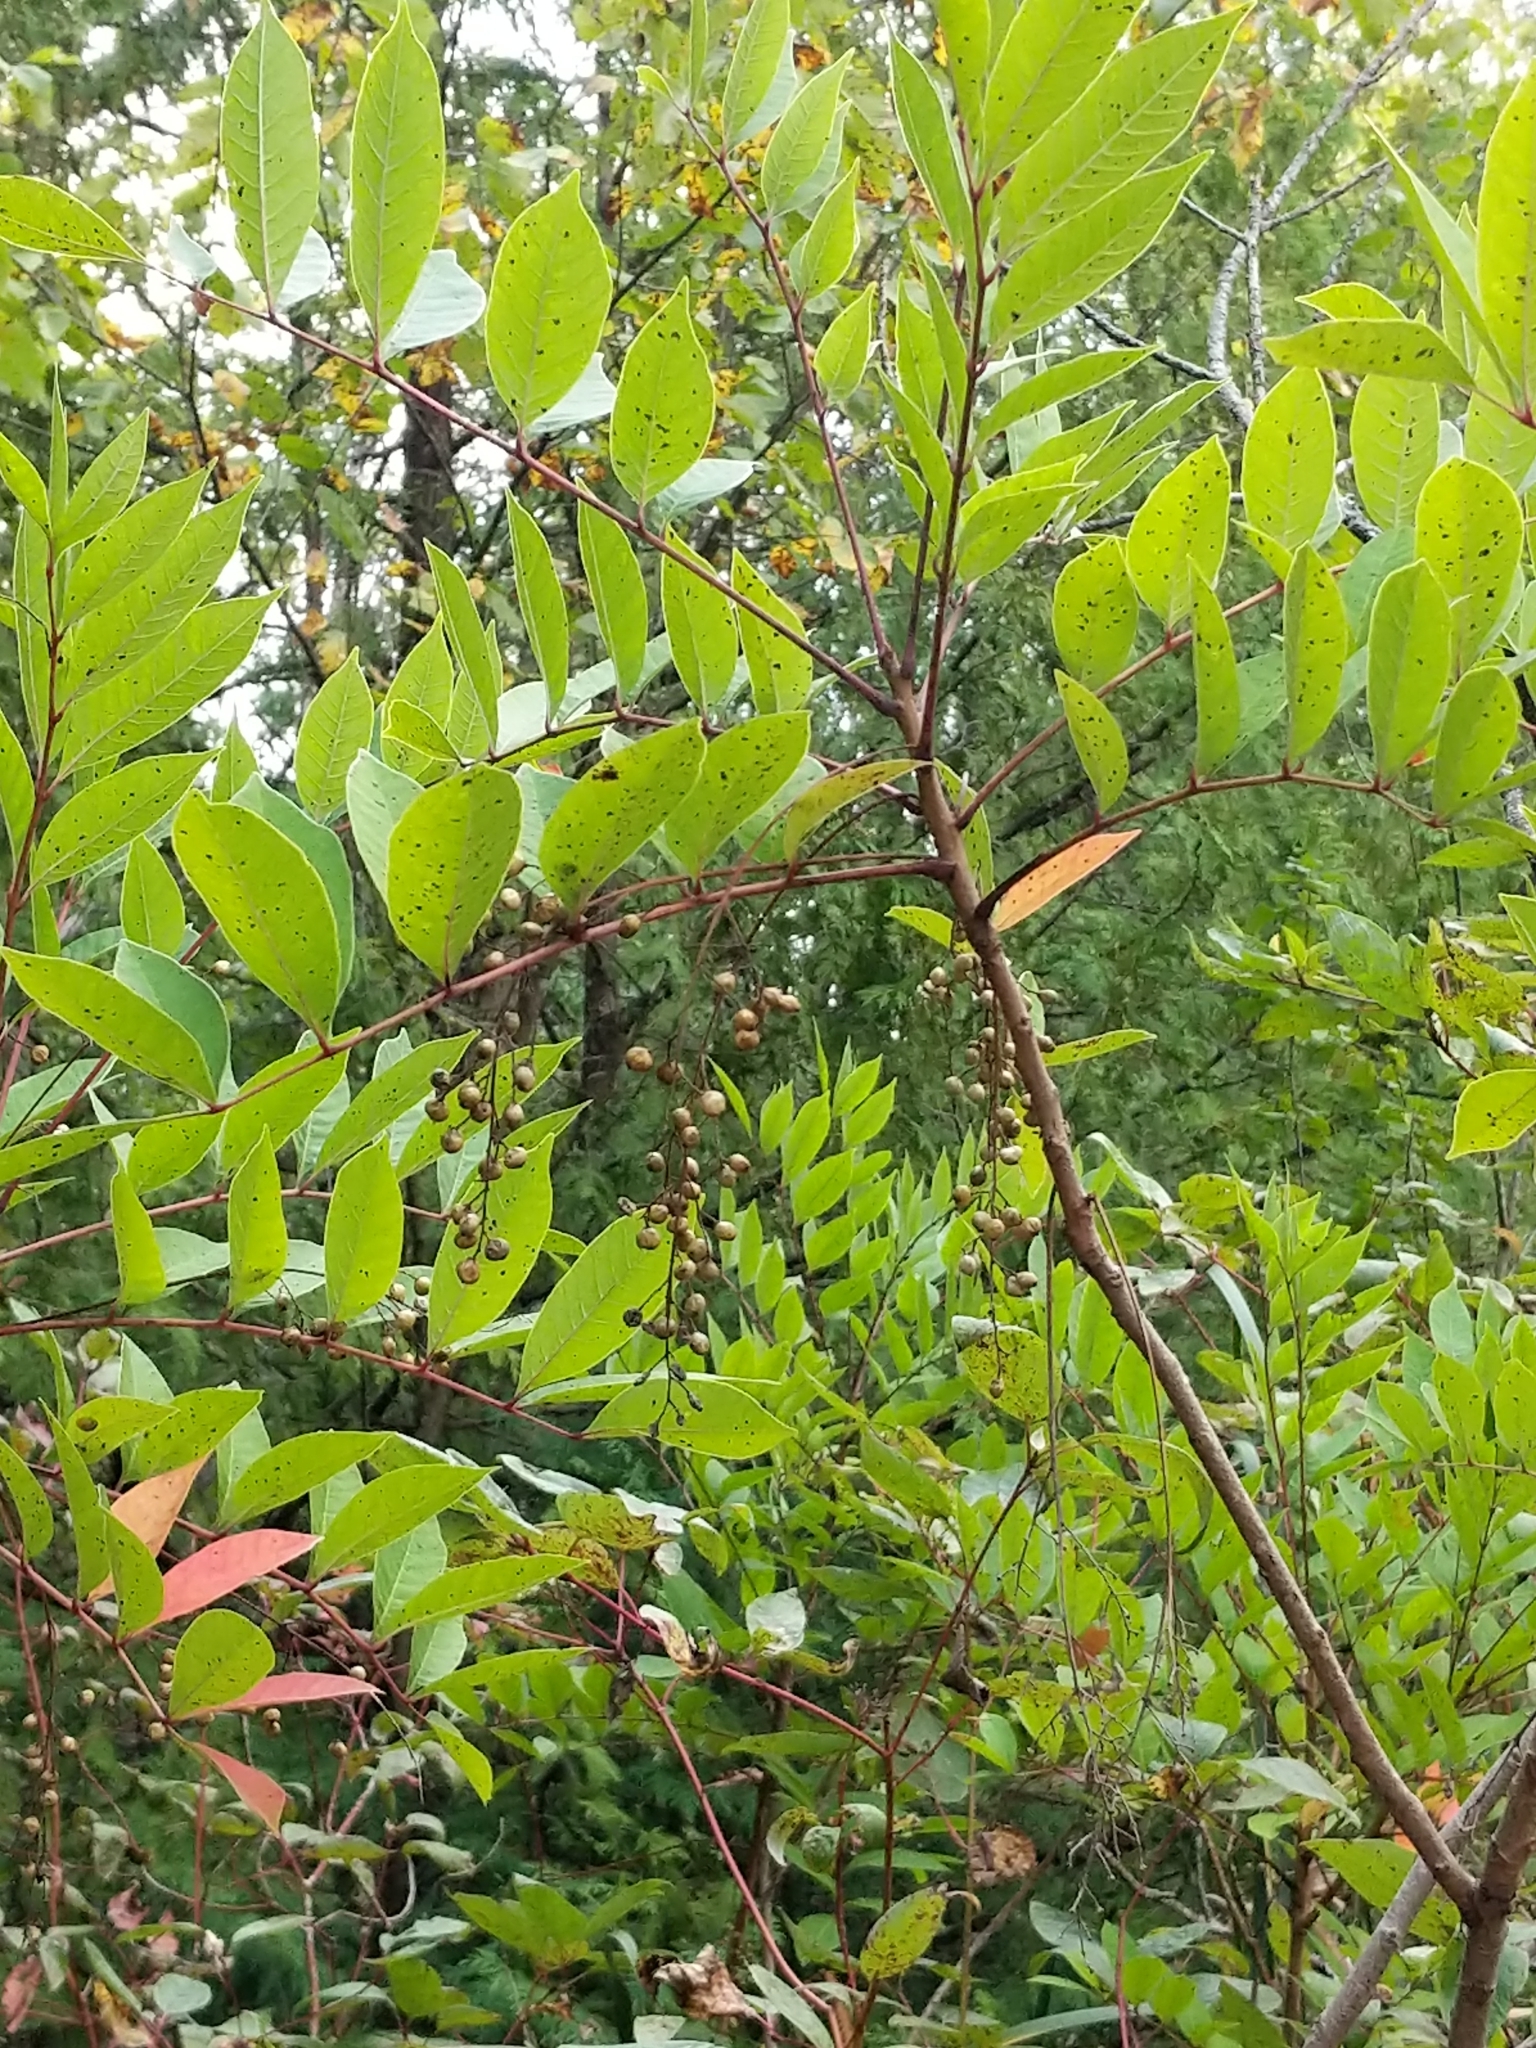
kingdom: Plantae
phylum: Tracheophyta
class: Magnoliopsida
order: Sapindales
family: Anacardiaceae
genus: Toxicodendron
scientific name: Toxicodendron vernix
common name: Poison sumac
